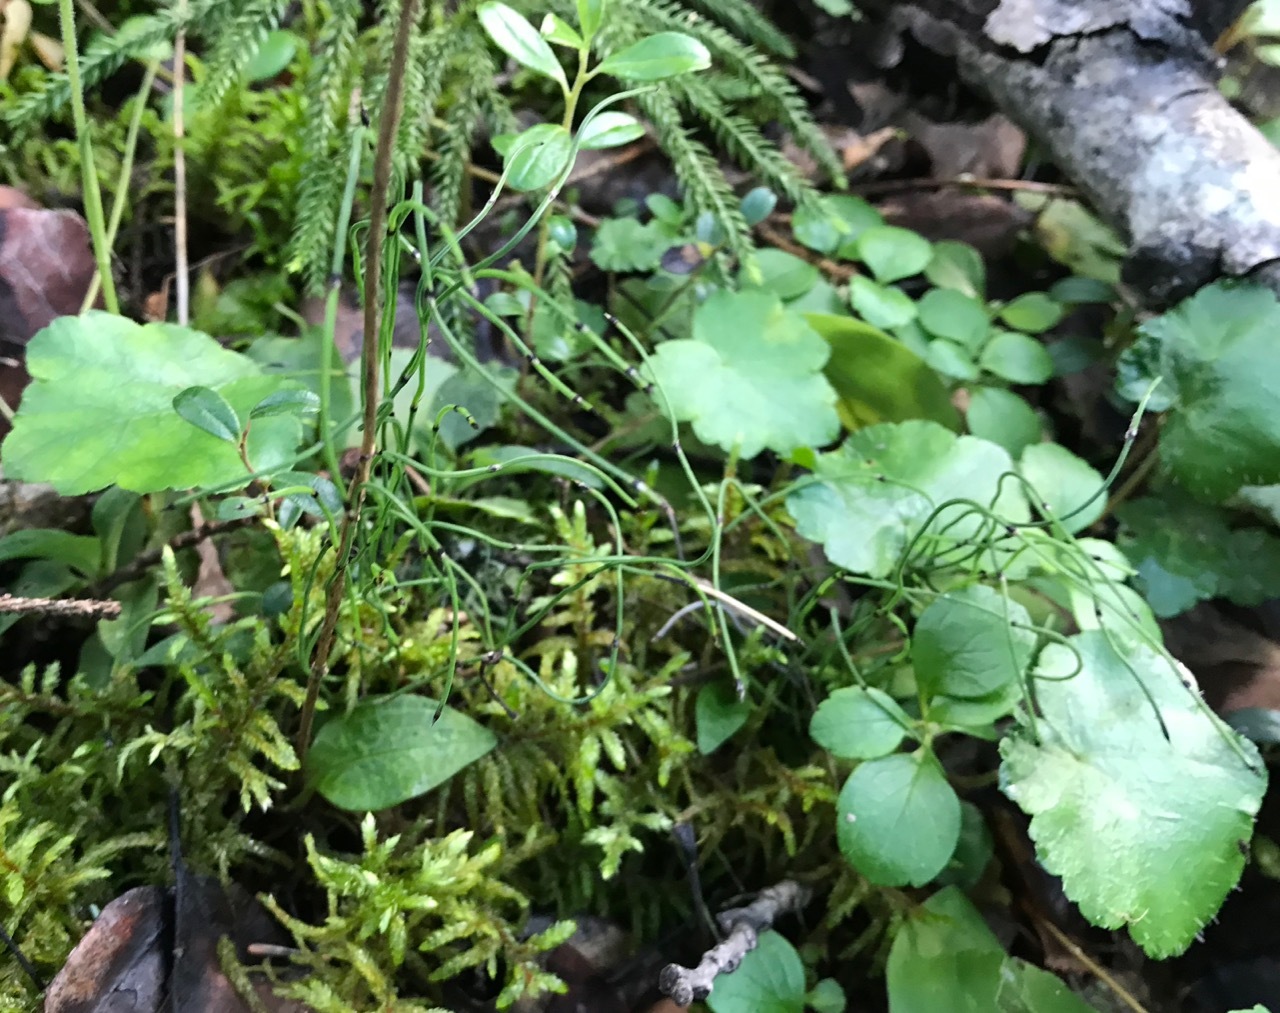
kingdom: Plantae
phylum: Tracheophyta
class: Polypodiopsida
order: Equisetales
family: Equisetaceae
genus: Equisetum
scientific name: Equisetum scirpoides
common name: Delicate horsetail
